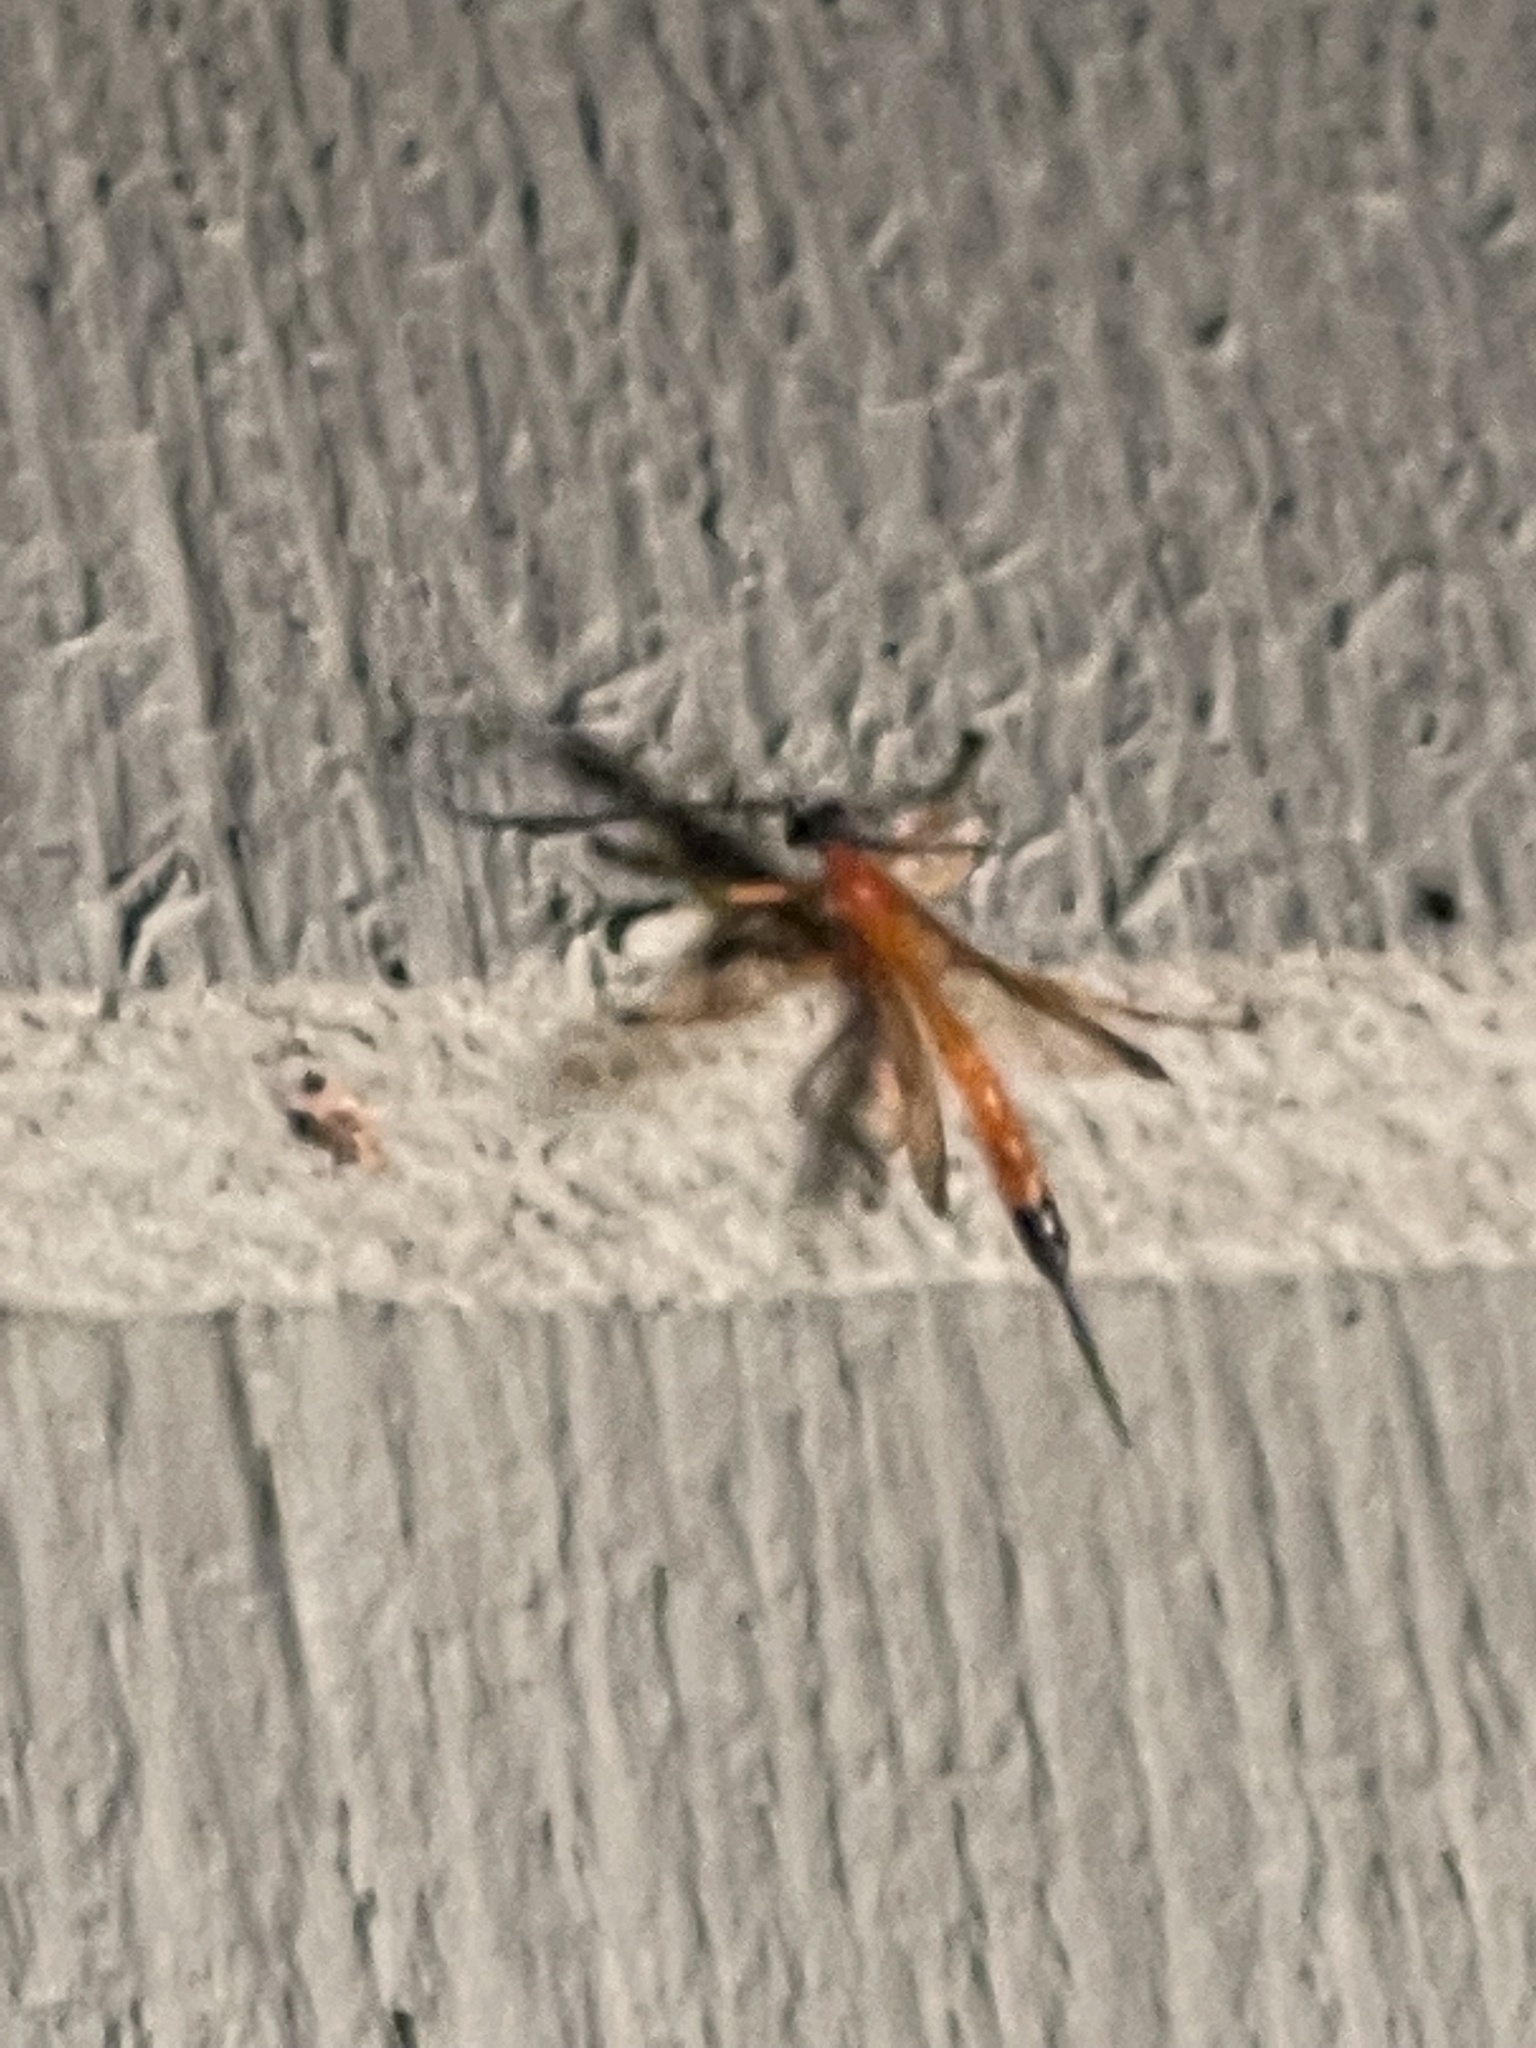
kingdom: Animalia
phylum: Arthropoda
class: Insecta
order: Hymenoptera
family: Ichneumonidae
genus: Acrotaphus
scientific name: Acrotaphus wiltii
